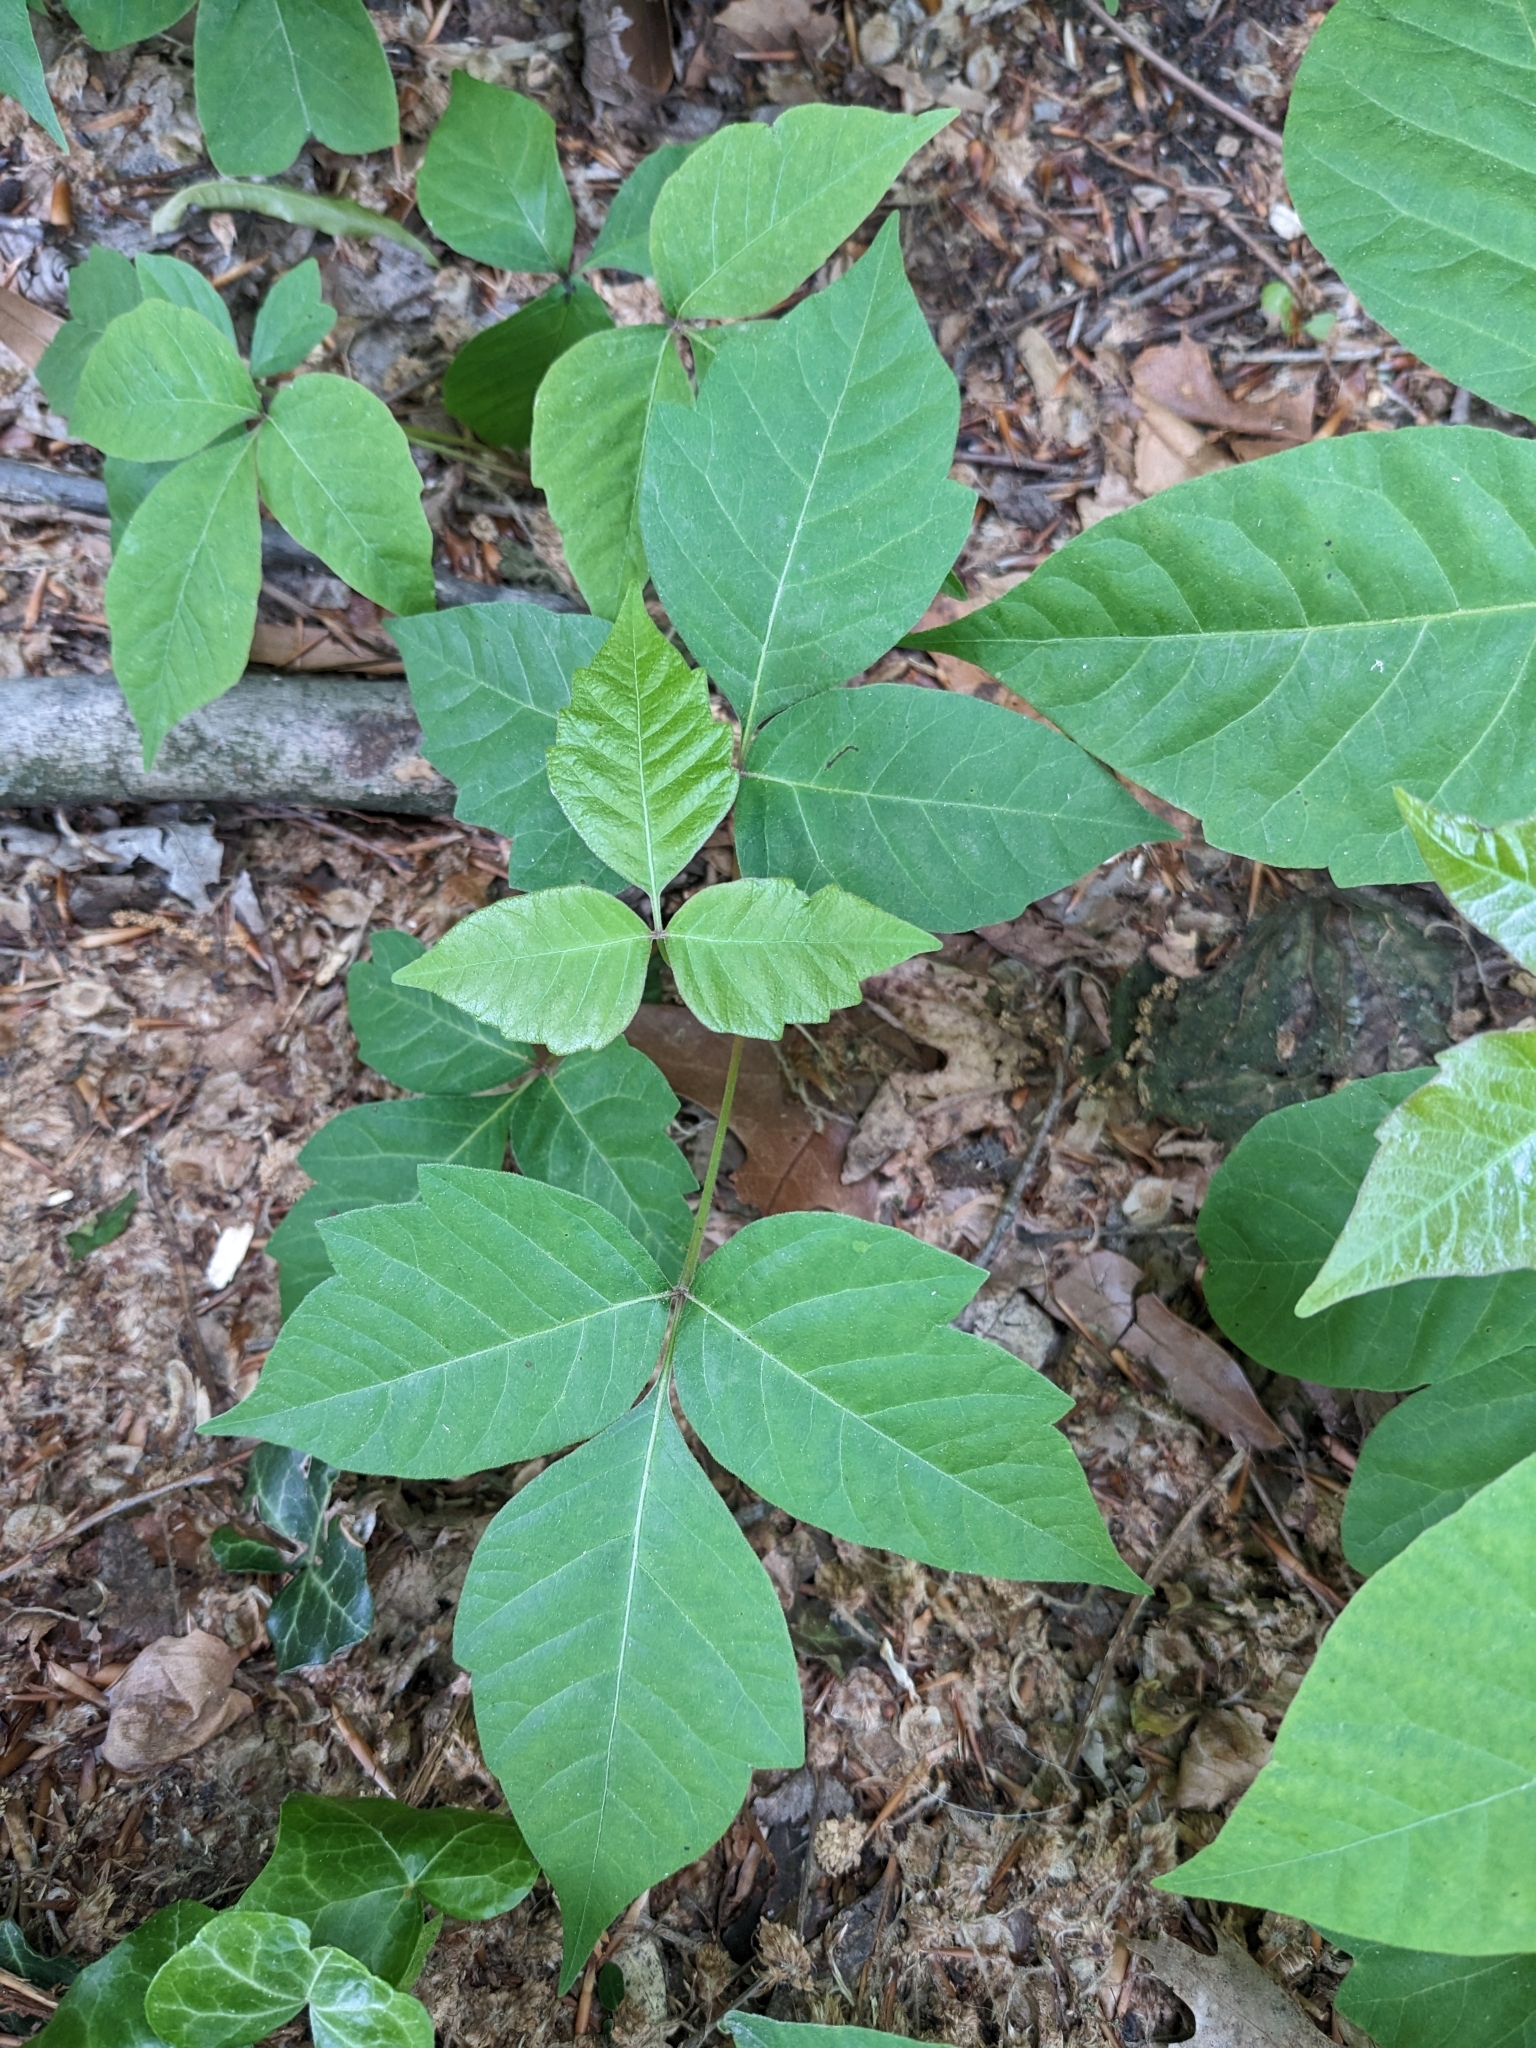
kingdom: Plantae
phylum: Tracheophyta
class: Magnoliopsida
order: Sapindales
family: Anacardiaceae
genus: Toxicodendron
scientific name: Toxicodendron radicans
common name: Poison ivy
